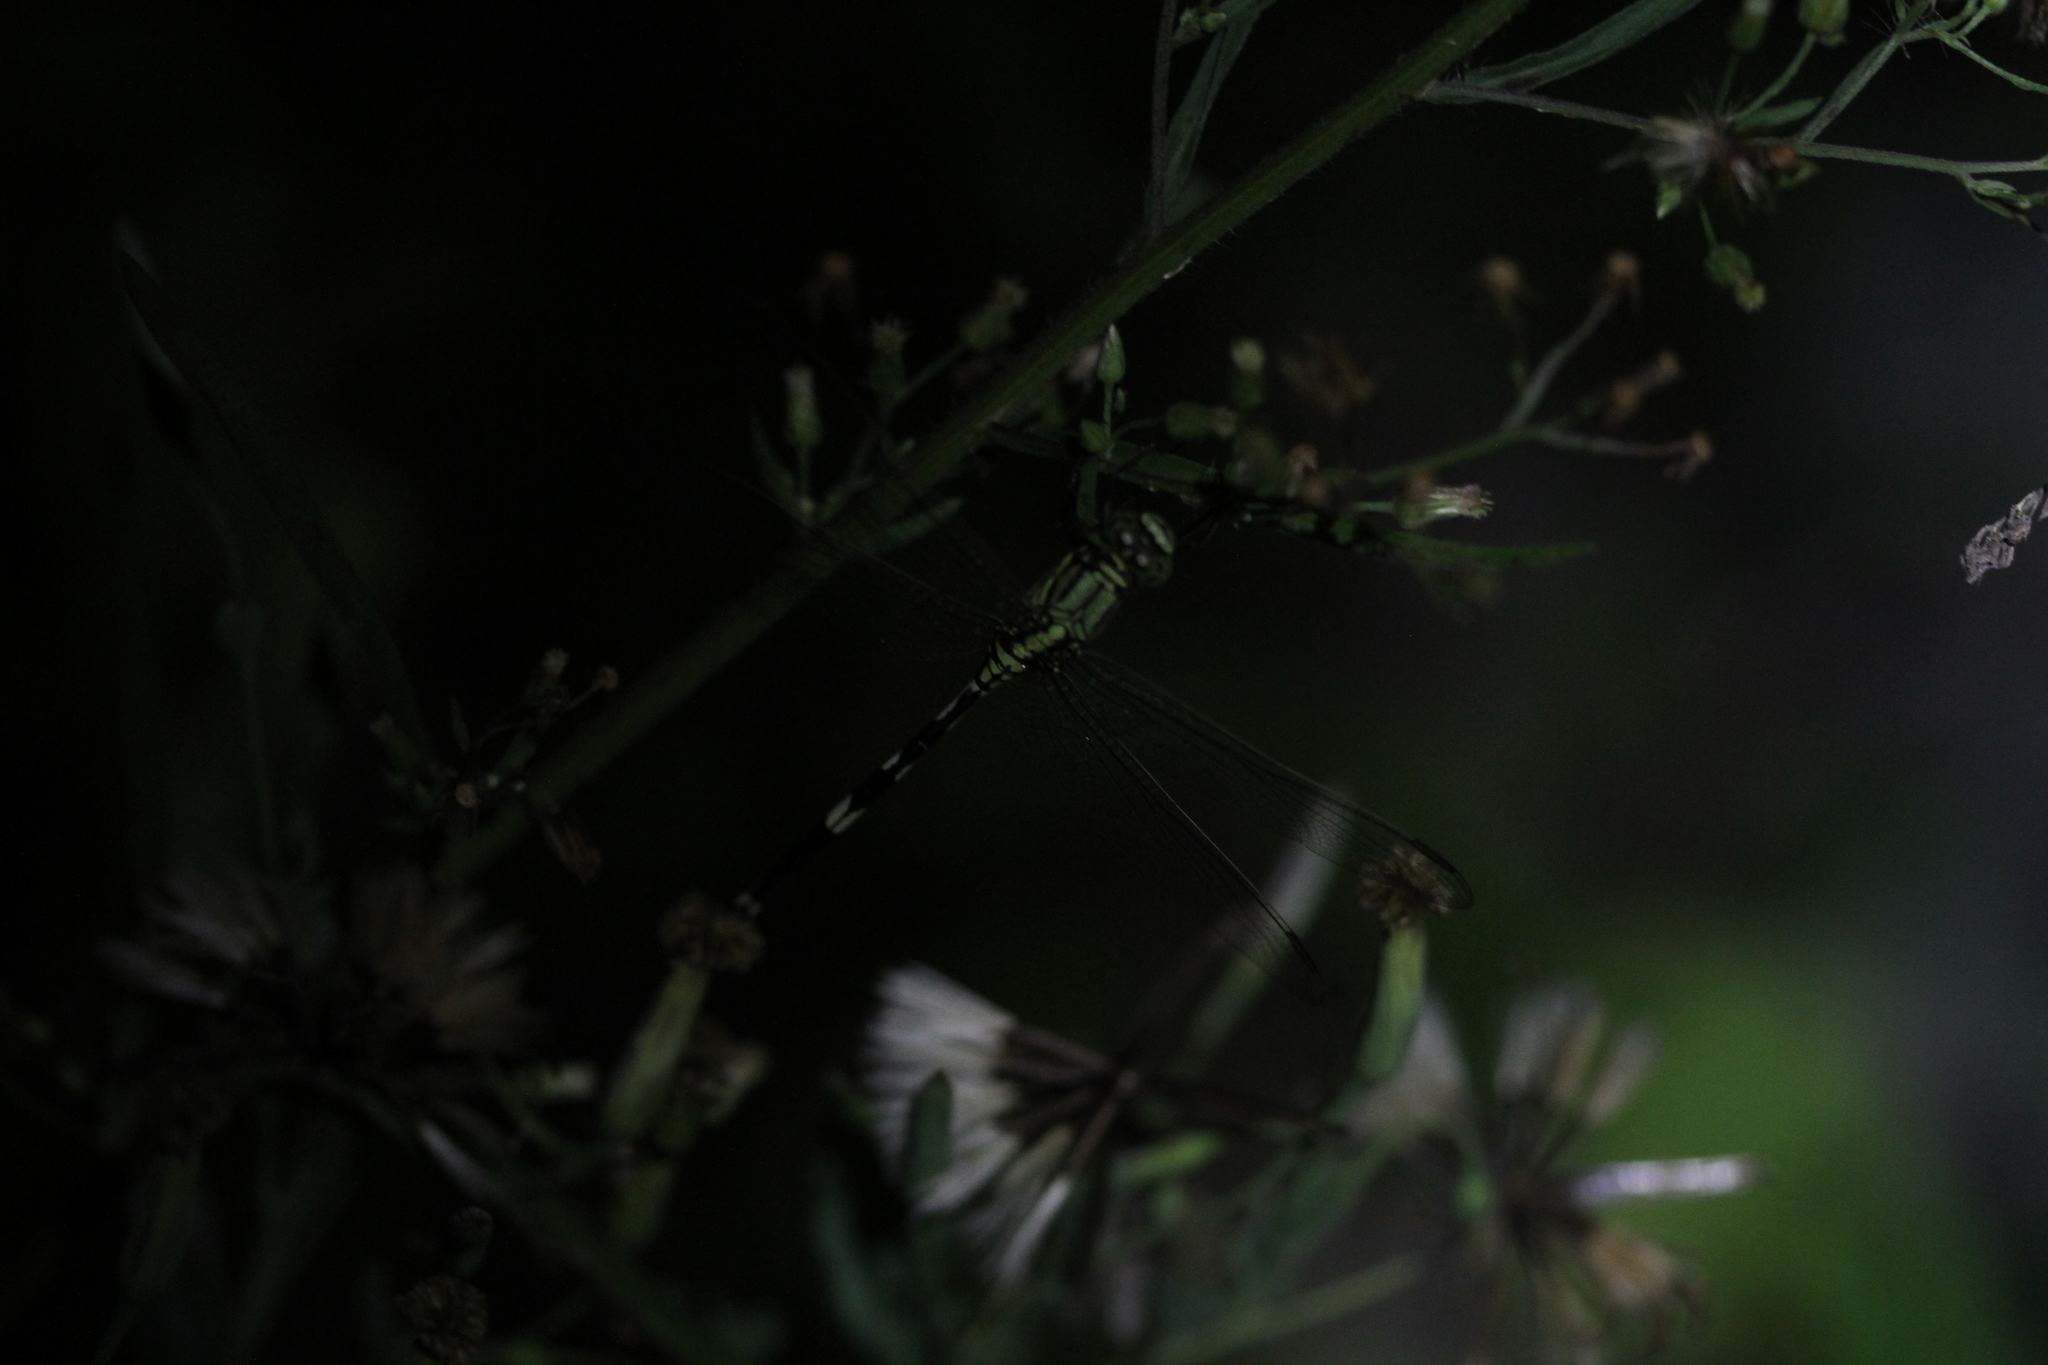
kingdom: Animalia
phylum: Arthropoda
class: Insecta
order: Odonata
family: Libellulidae
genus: Orthetrum
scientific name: Orthetrum sabina
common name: Slender skimmer
